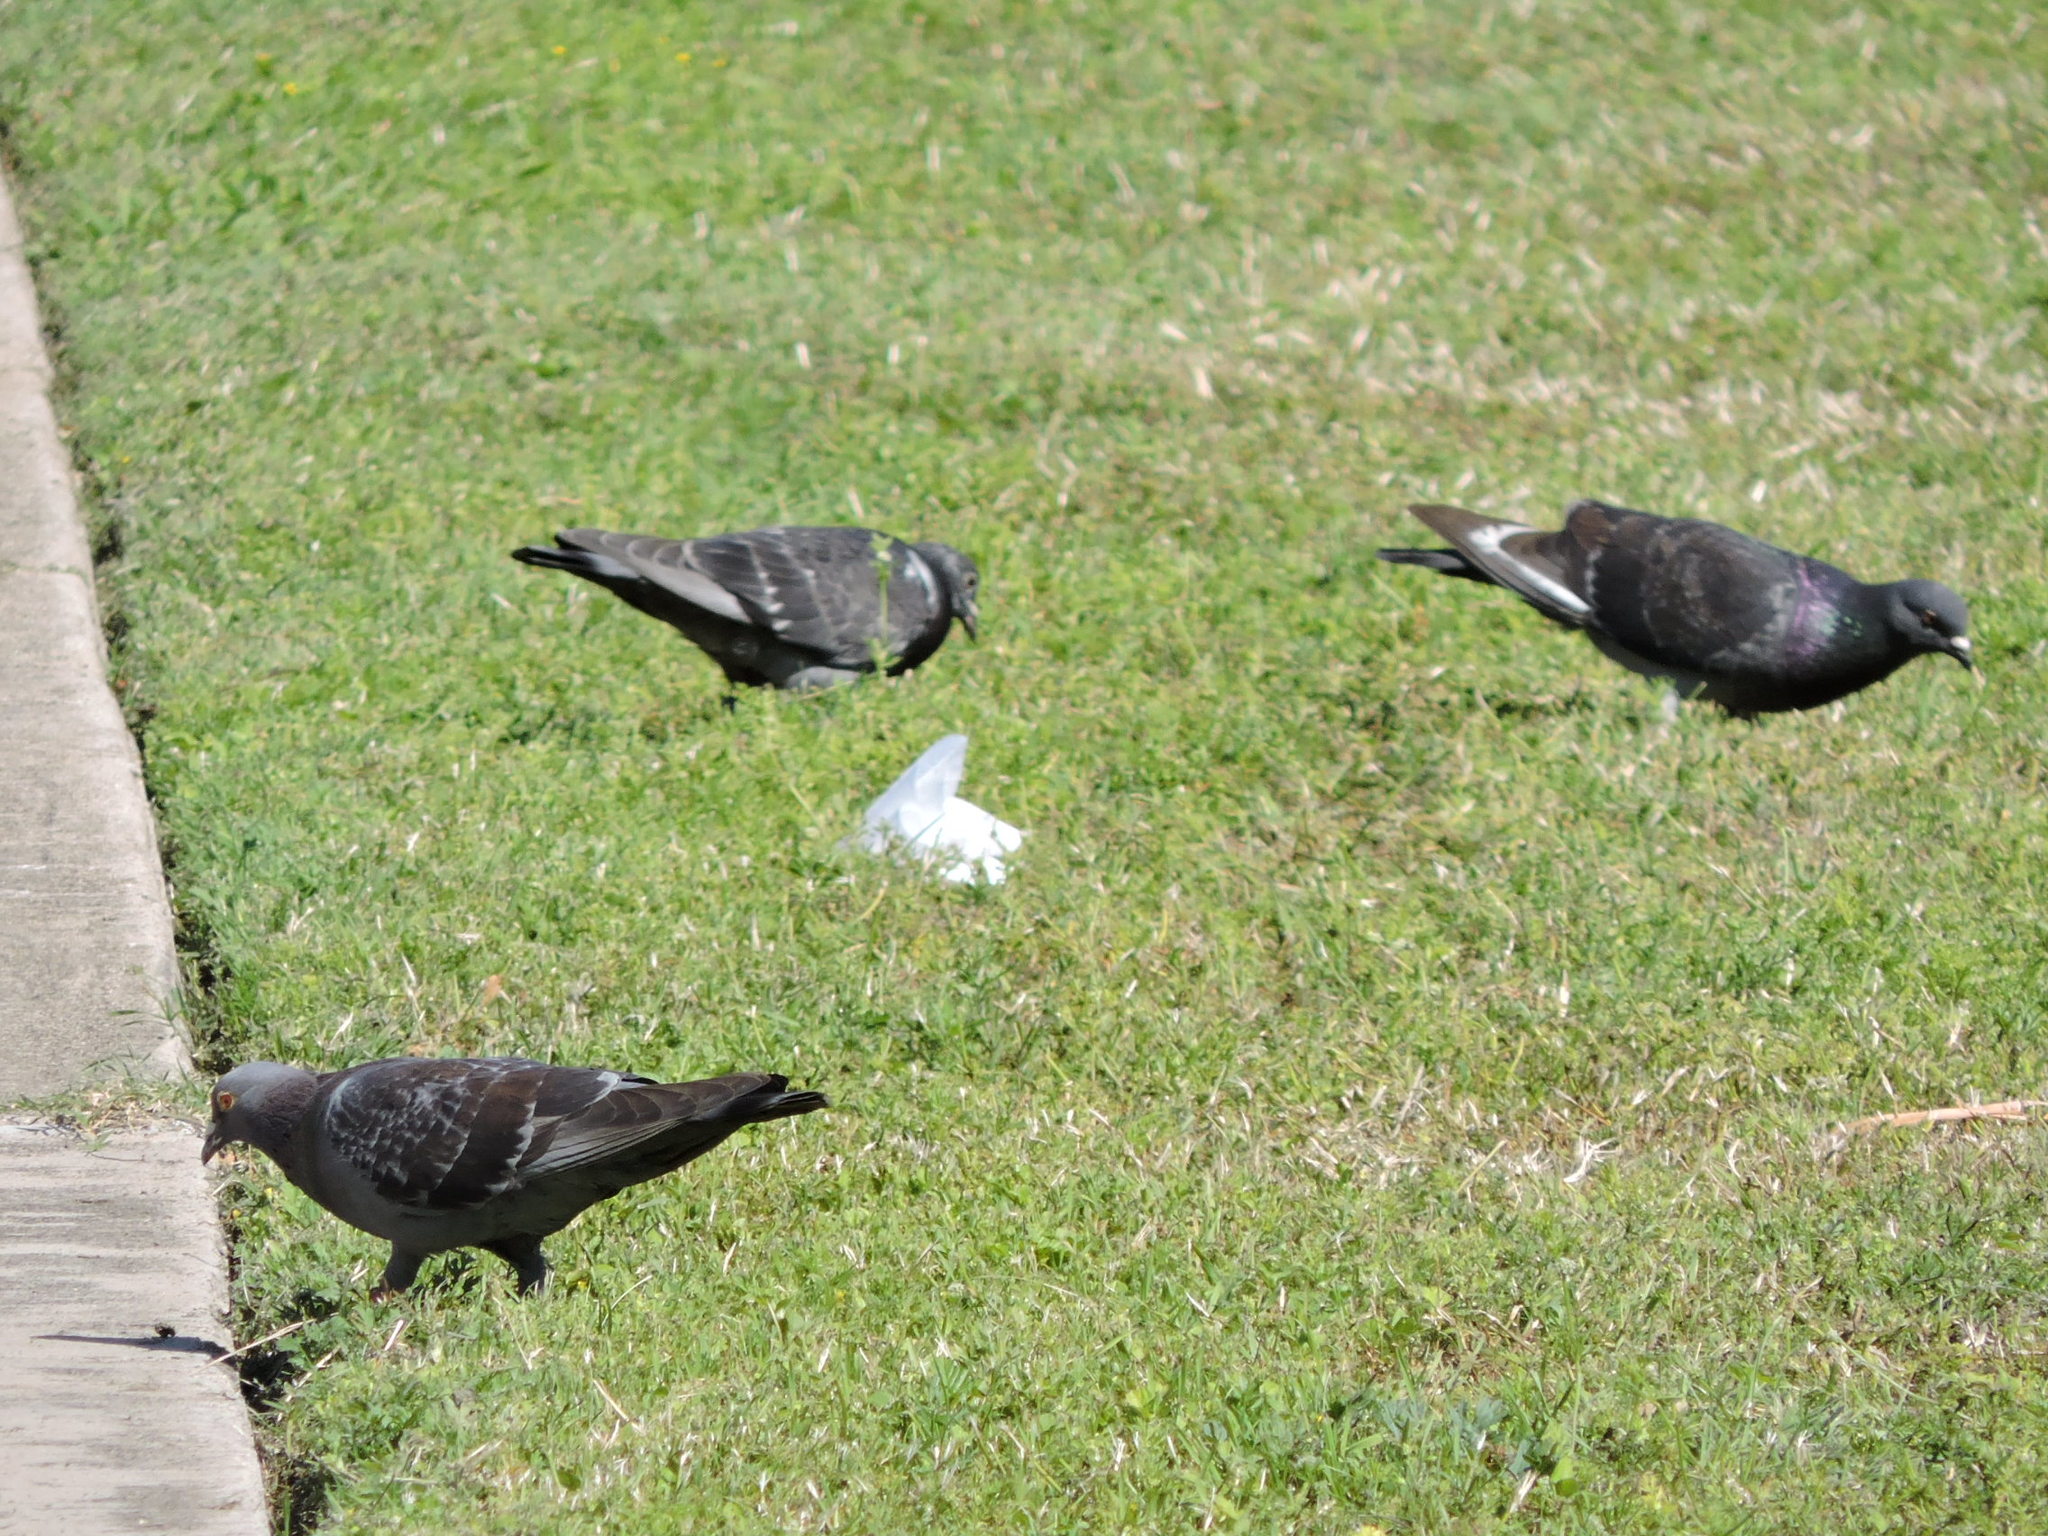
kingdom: Animalia
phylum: Chordata
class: Aves
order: Columbiformes
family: Columbidae
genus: Columba
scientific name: Columba livia
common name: Rock pigeon
